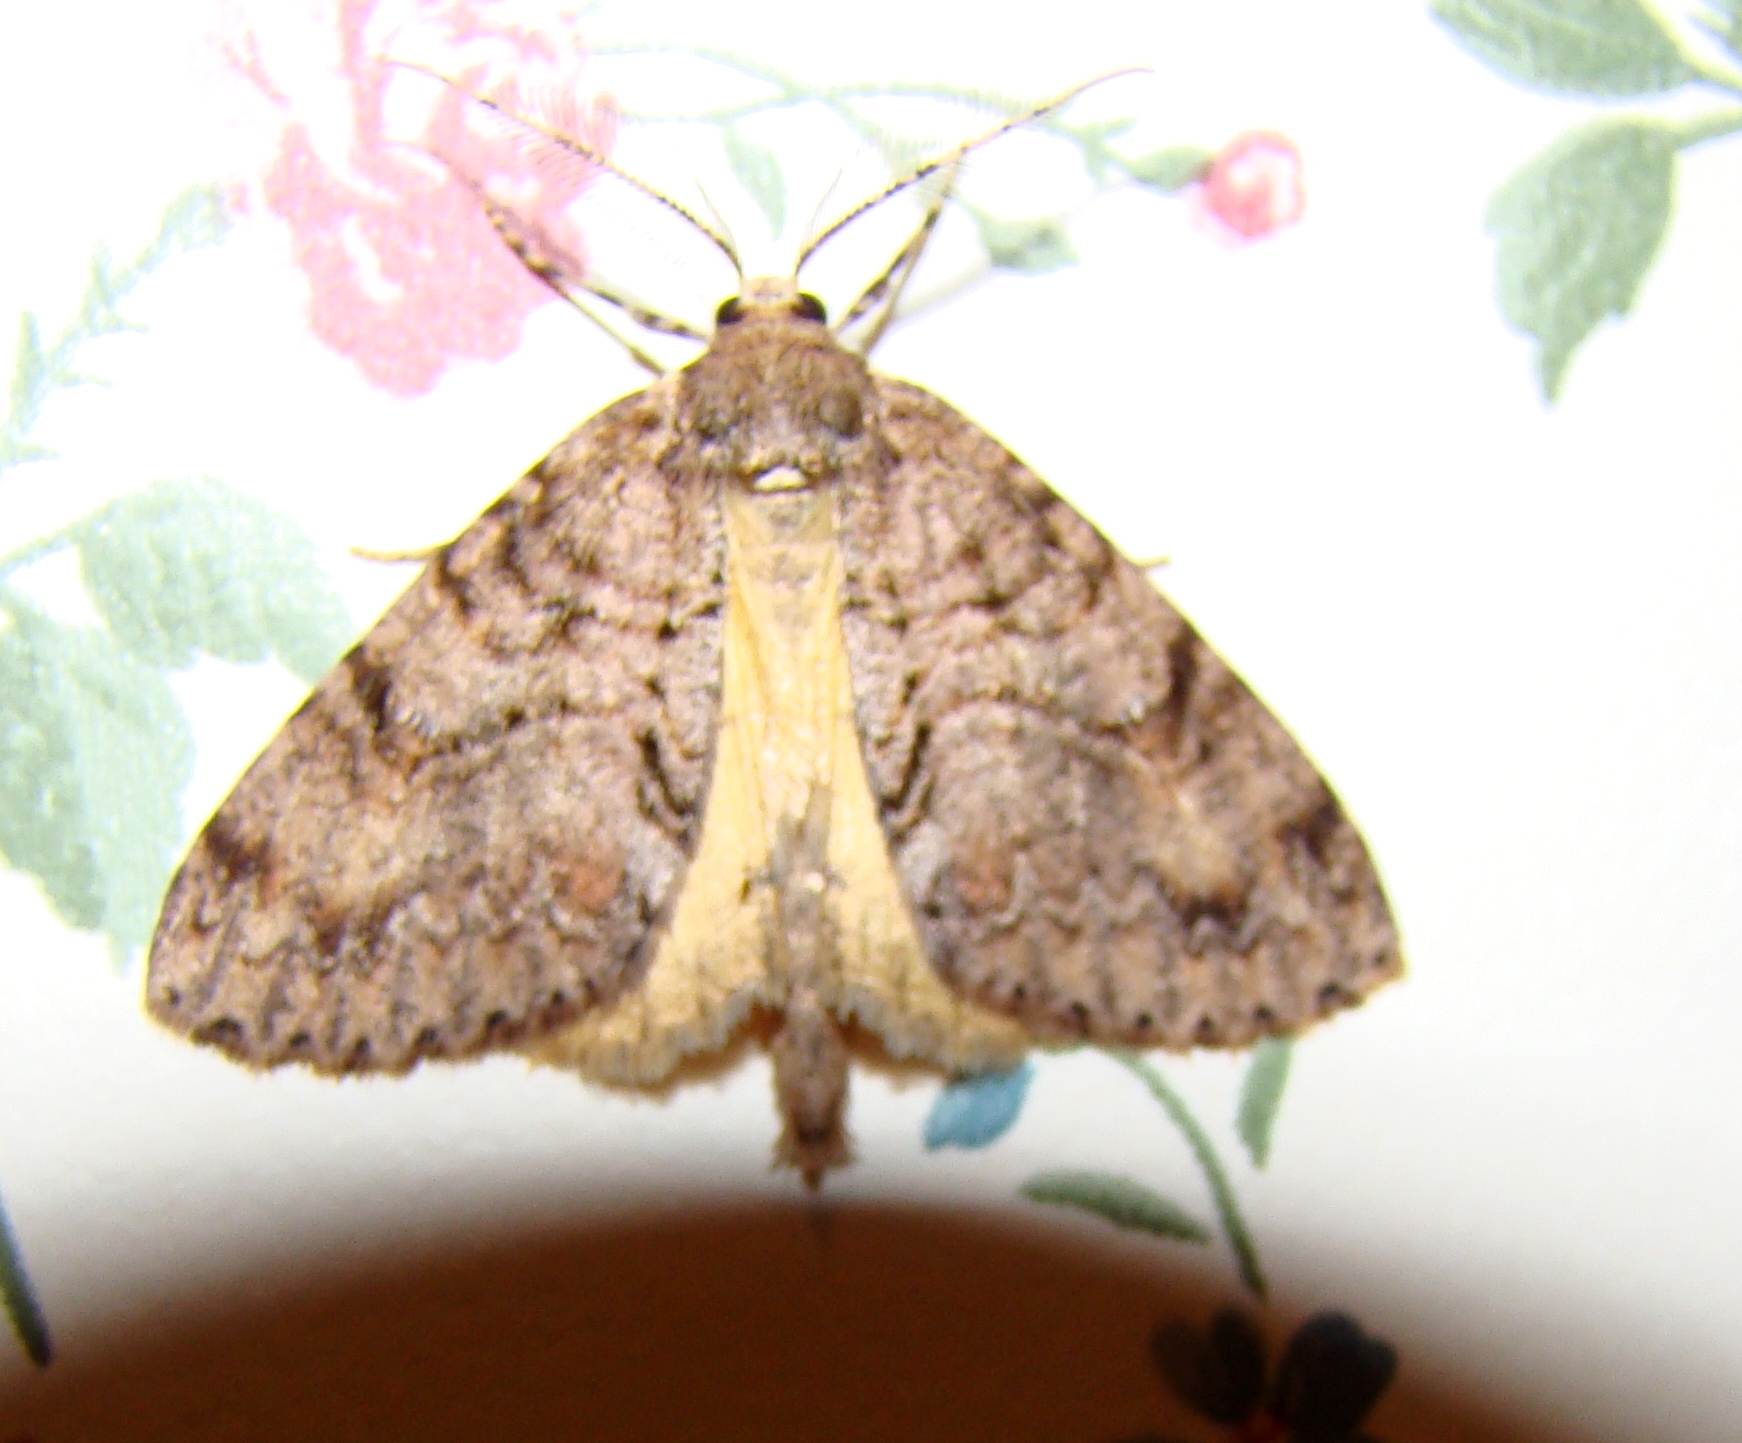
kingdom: Animalia
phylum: Arthropoda
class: Insecta
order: Lepidoptera
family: Geometridae
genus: Pseudocoremia
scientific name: Pseudocoremia suavis
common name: Common forest looper
